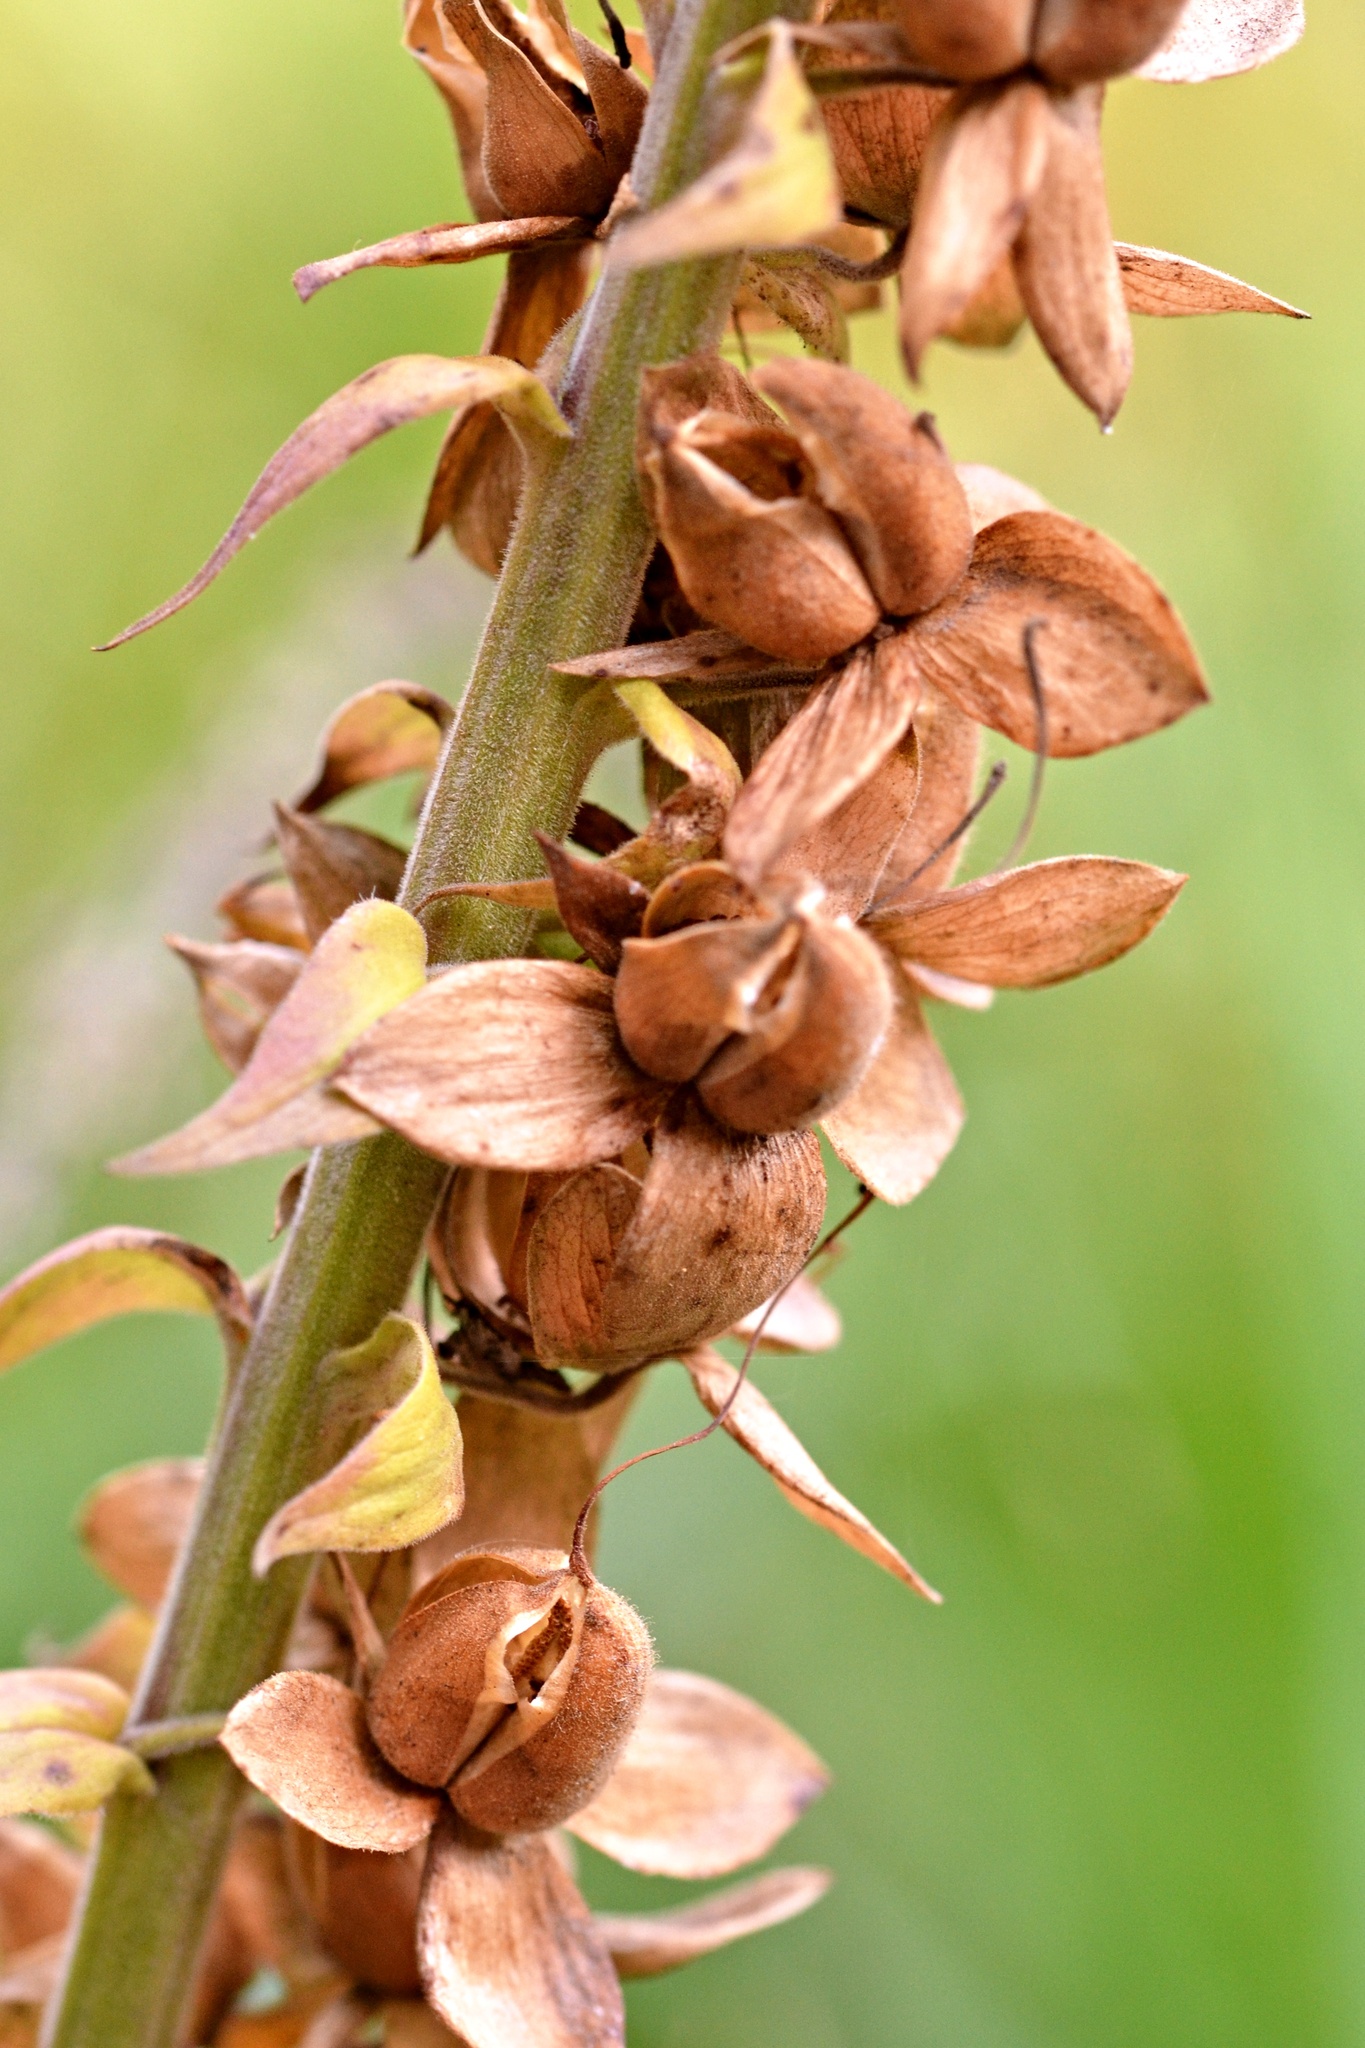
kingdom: Plantae
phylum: Tracheophyta
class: Magnoliopsida
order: Lamiales
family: Plantaginaceae
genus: Digitalis
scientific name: Digitalis purpurea
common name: Foxglove
